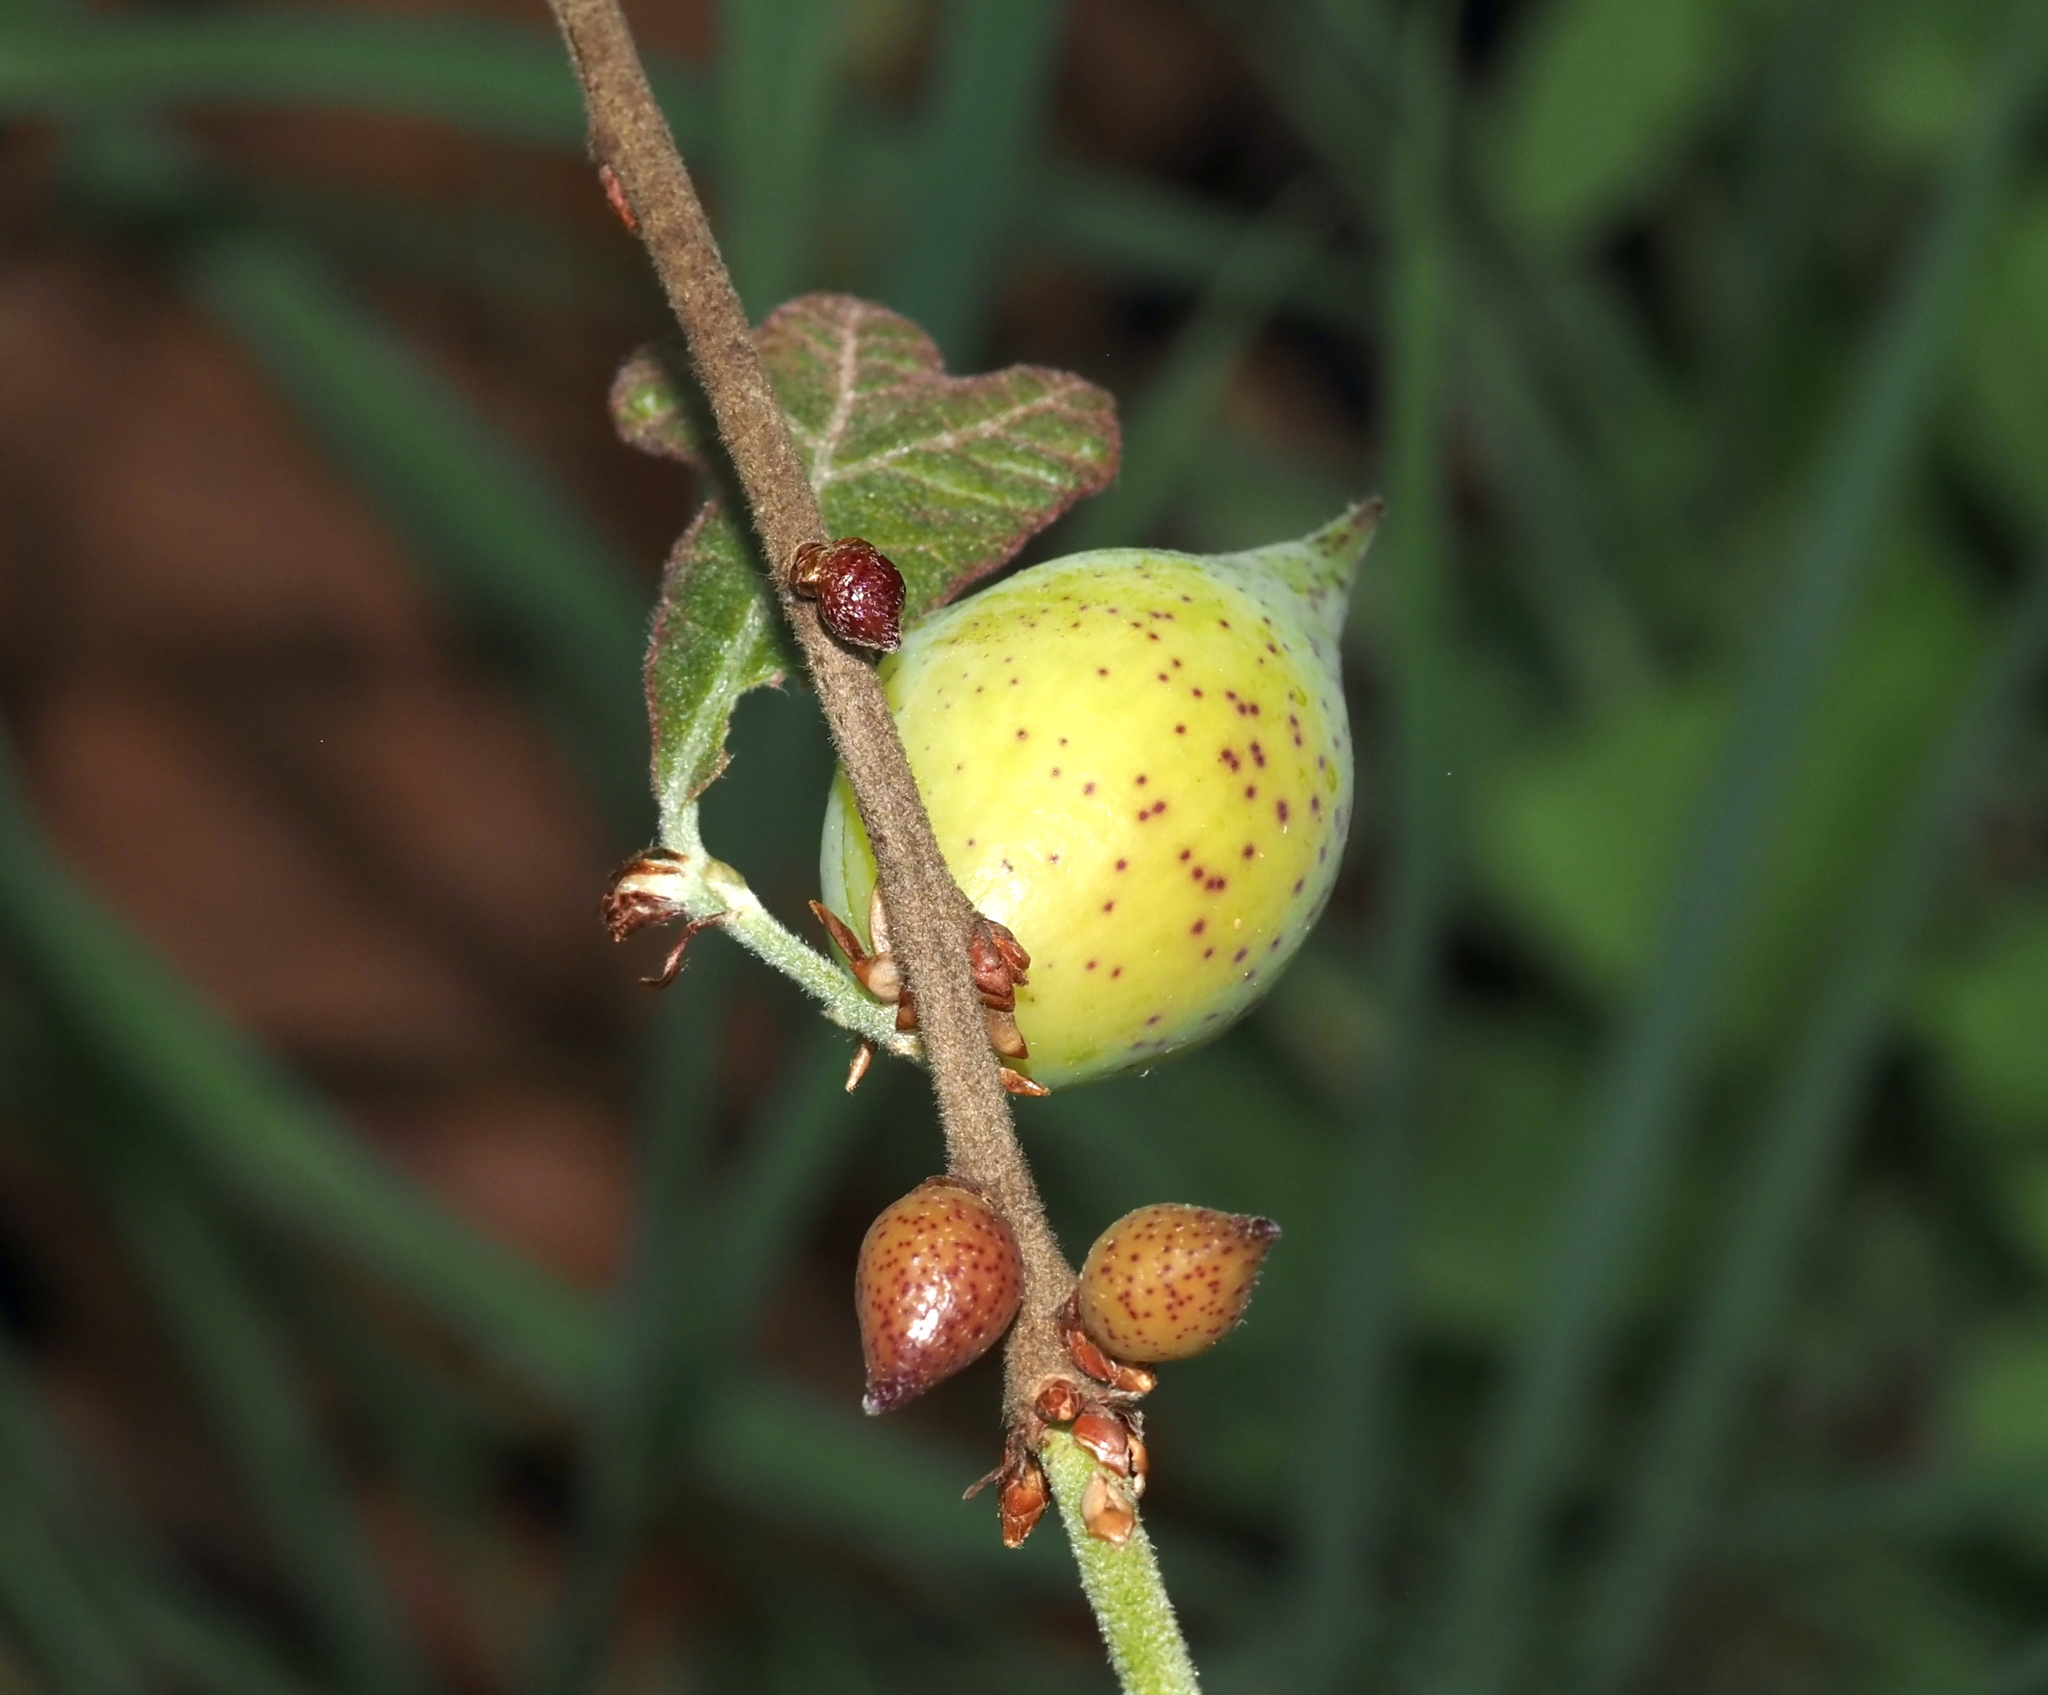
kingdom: Animalia
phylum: Arthropoda
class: Insecta
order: Hymenoptera
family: Cynipidae
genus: Amphibolips
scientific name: Amphibolips
